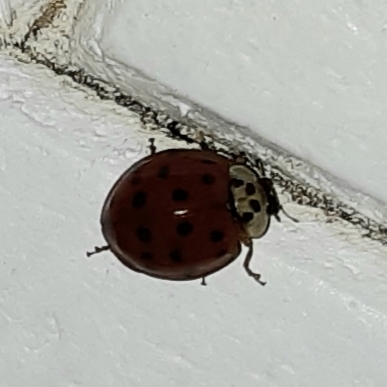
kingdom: Animalia
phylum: Arthropoda
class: Insecta
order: Coleoptera
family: Coccinellidae
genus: Harmonia
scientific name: Harmonia axyridis
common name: Harlequin ladybird
